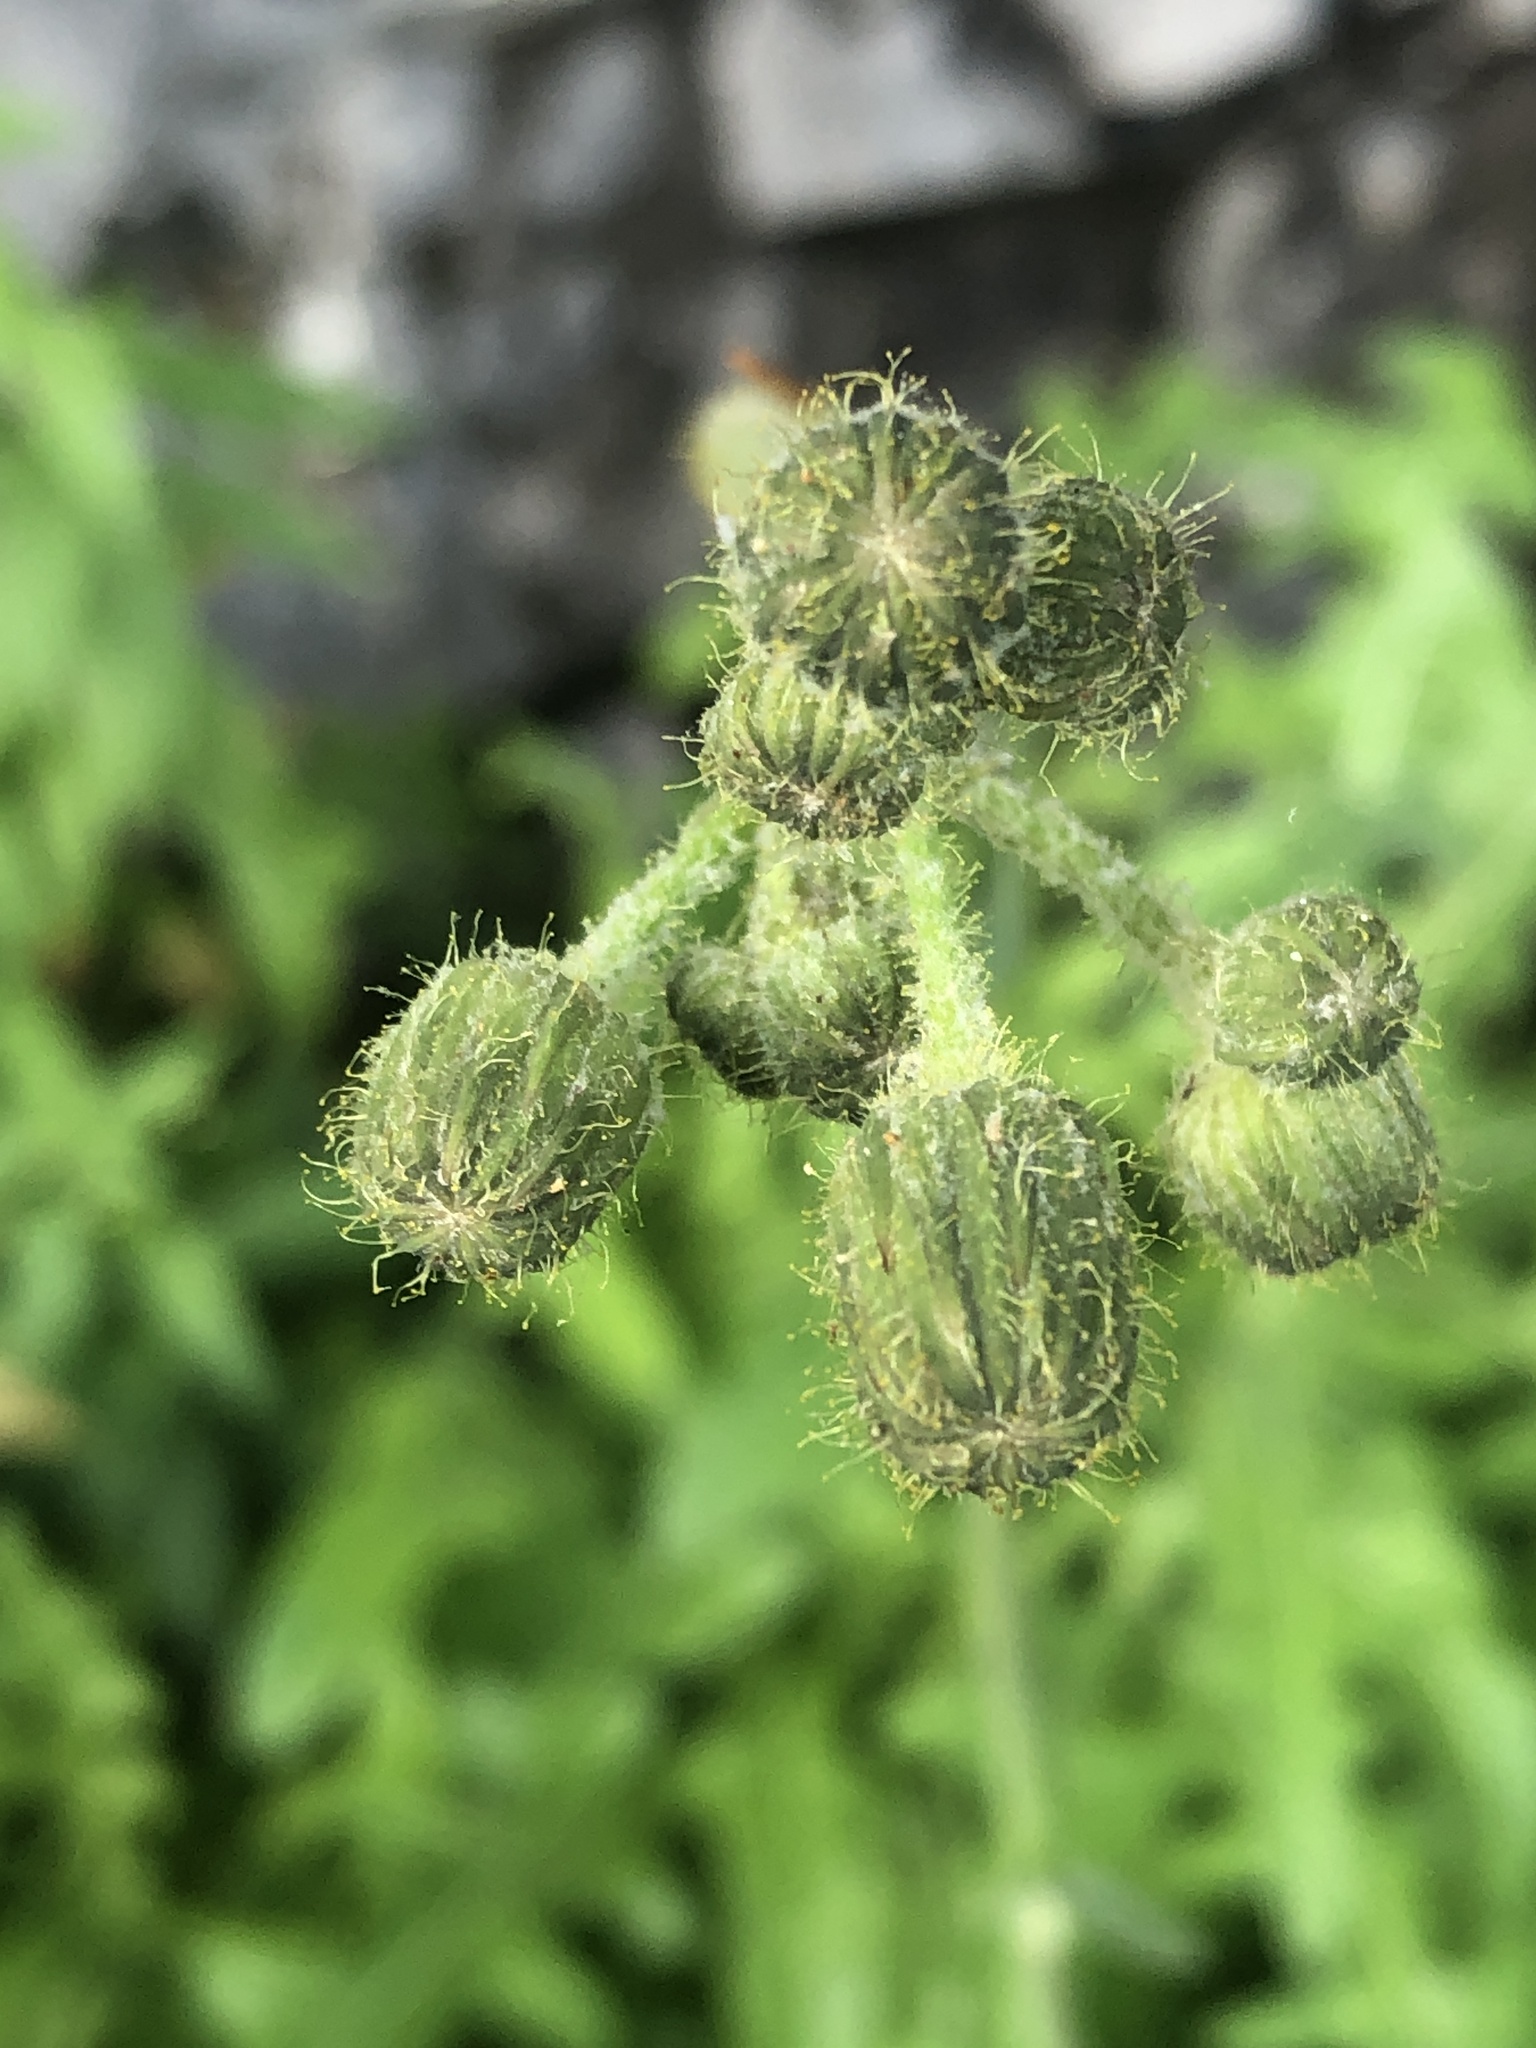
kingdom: Plantae
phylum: Tracheophyta
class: Magnoliopsida
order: Asterales
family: Asteraceae
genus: Sonchus
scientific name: Sonchus arvensis
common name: Perennial sow-thistle
